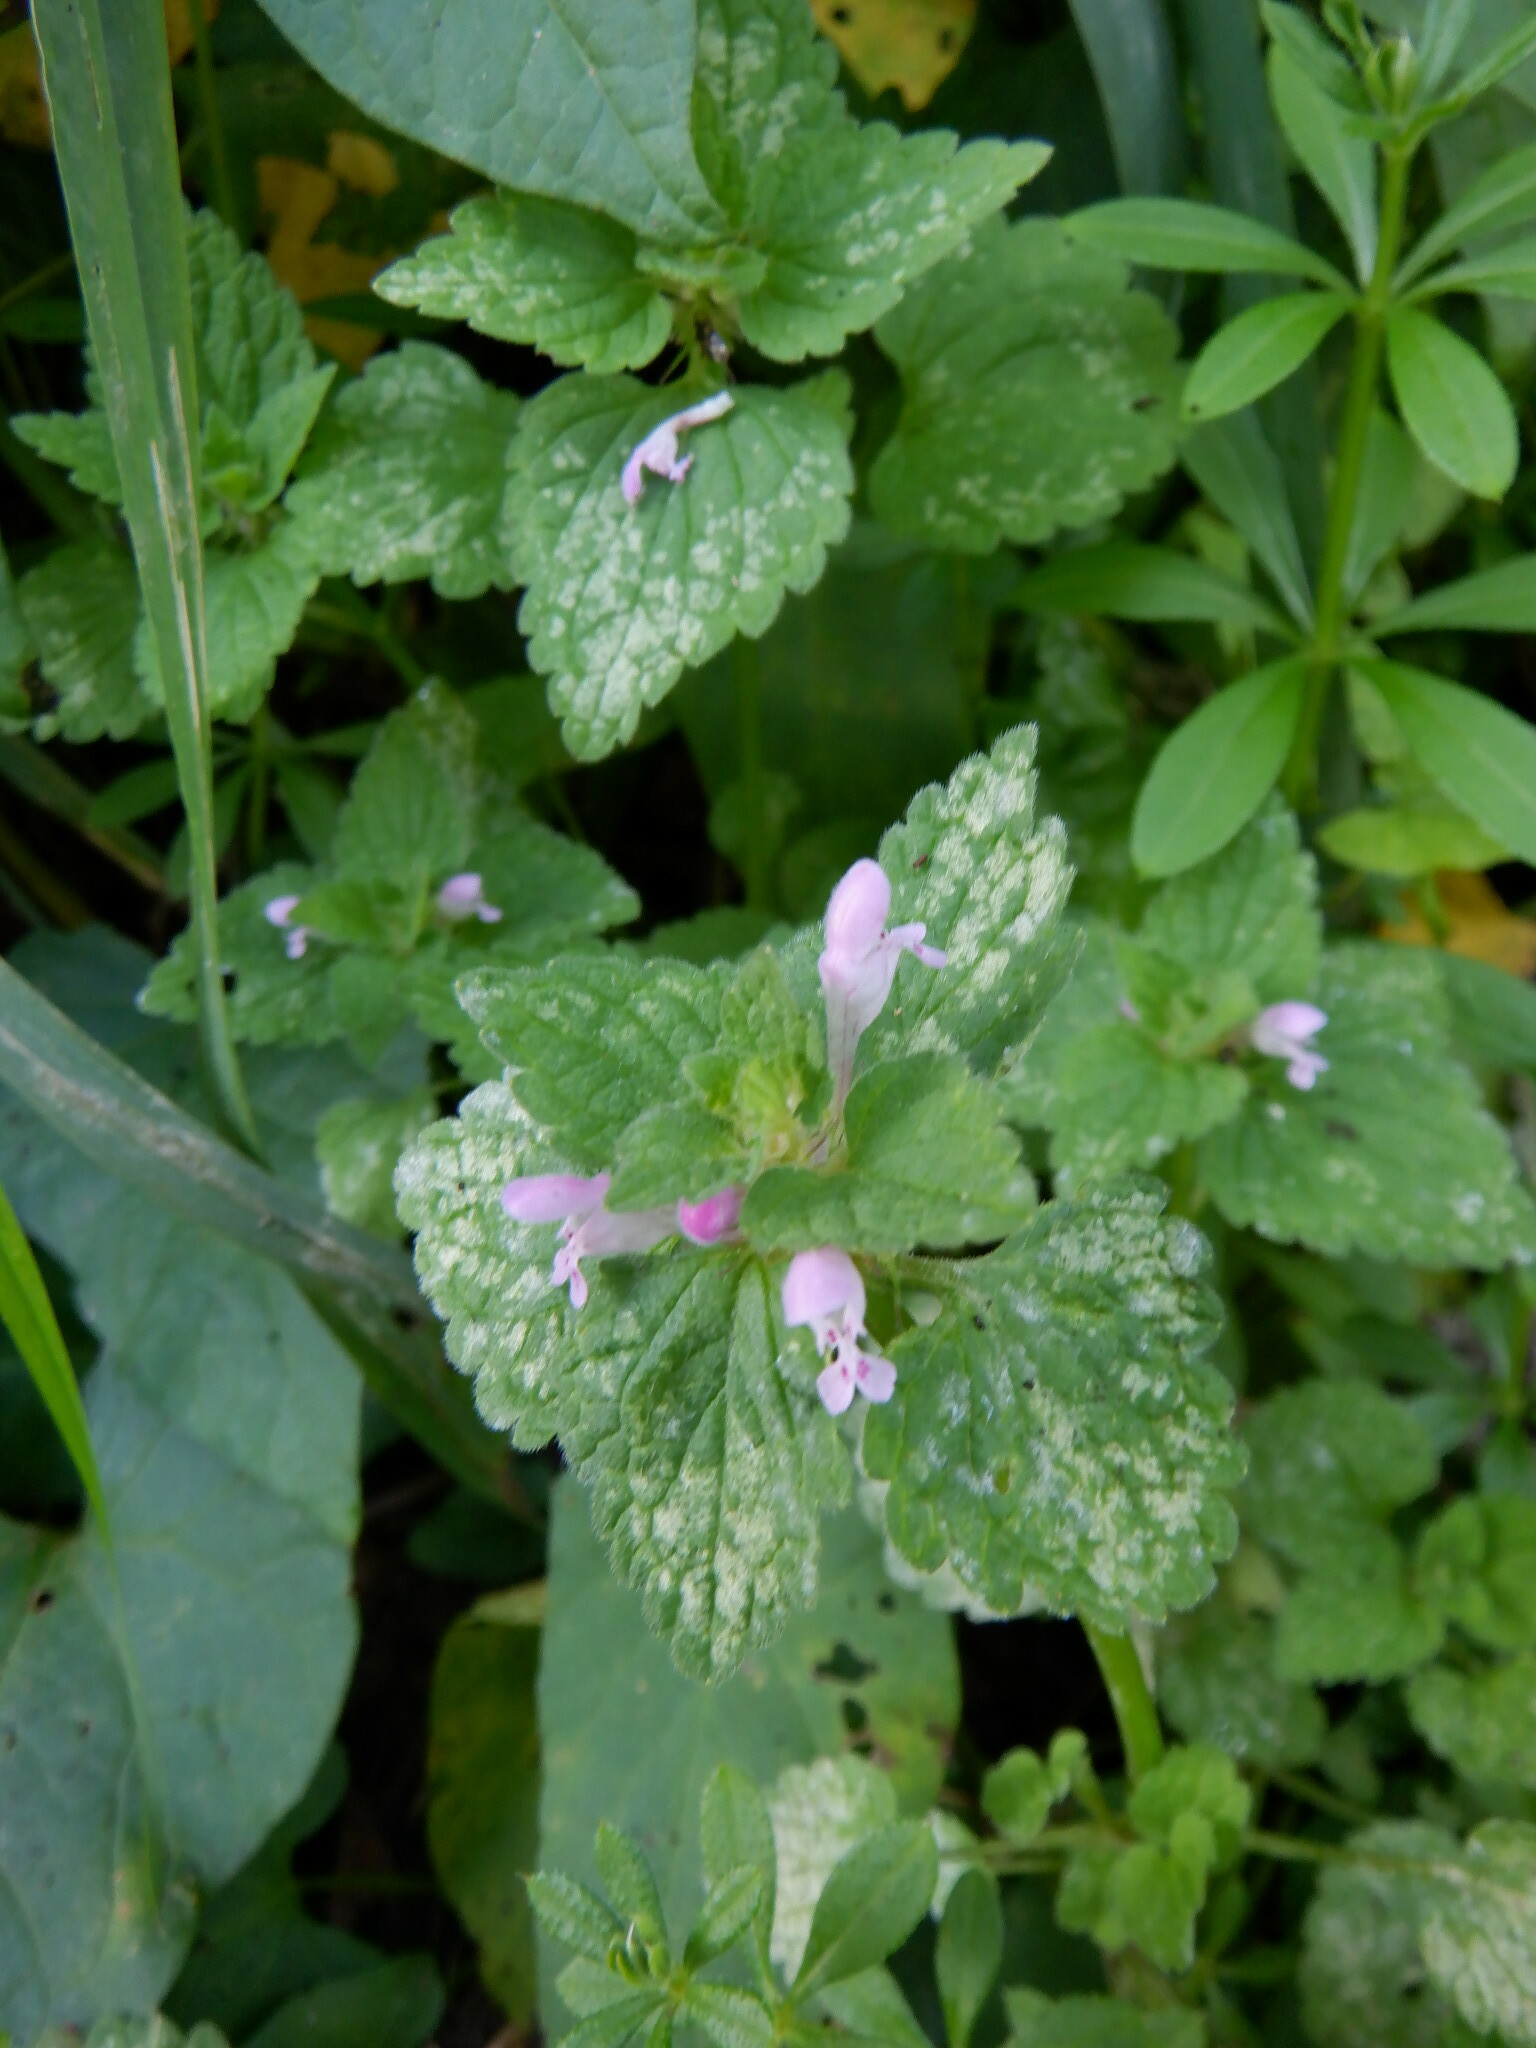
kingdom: Plantae
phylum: Tracheophyta
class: Magnoliopsida
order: Lamiales
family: Lamiaceae
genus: Lamium
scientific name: Lamium purpureum
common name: Red dead-nettle
